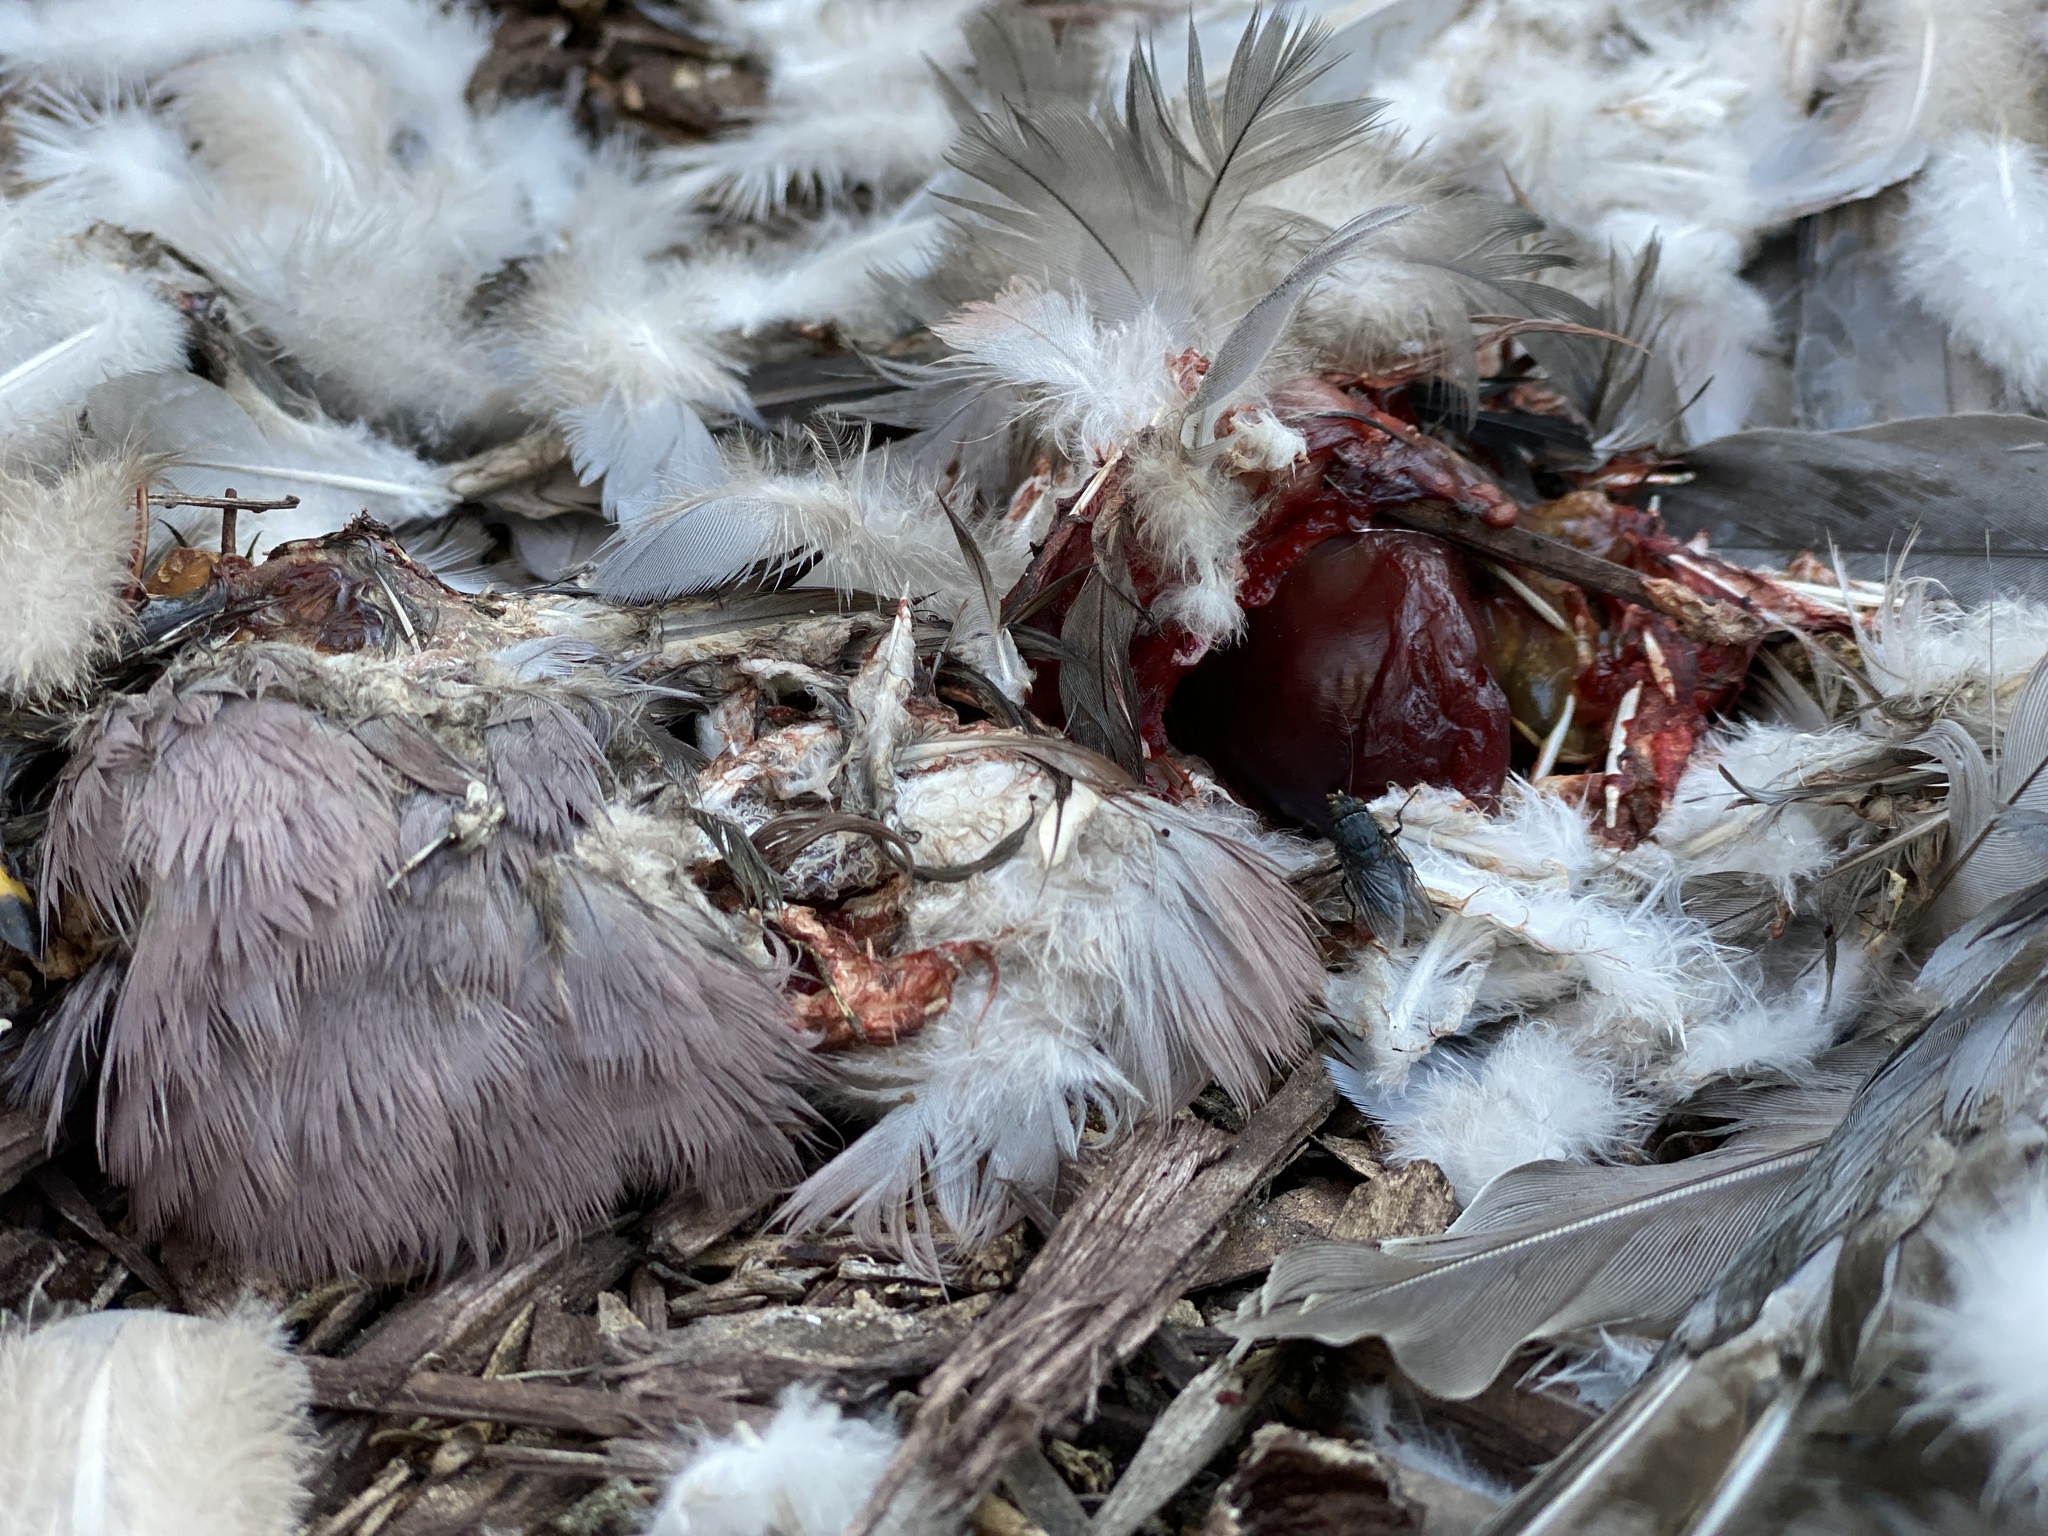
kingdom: Animalia
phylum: Chordata
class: Aves
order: Columbiformes
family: Columbidae
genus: Patagioenas
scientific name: Patagioenas fasciata
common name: Band-tailed pigeon
